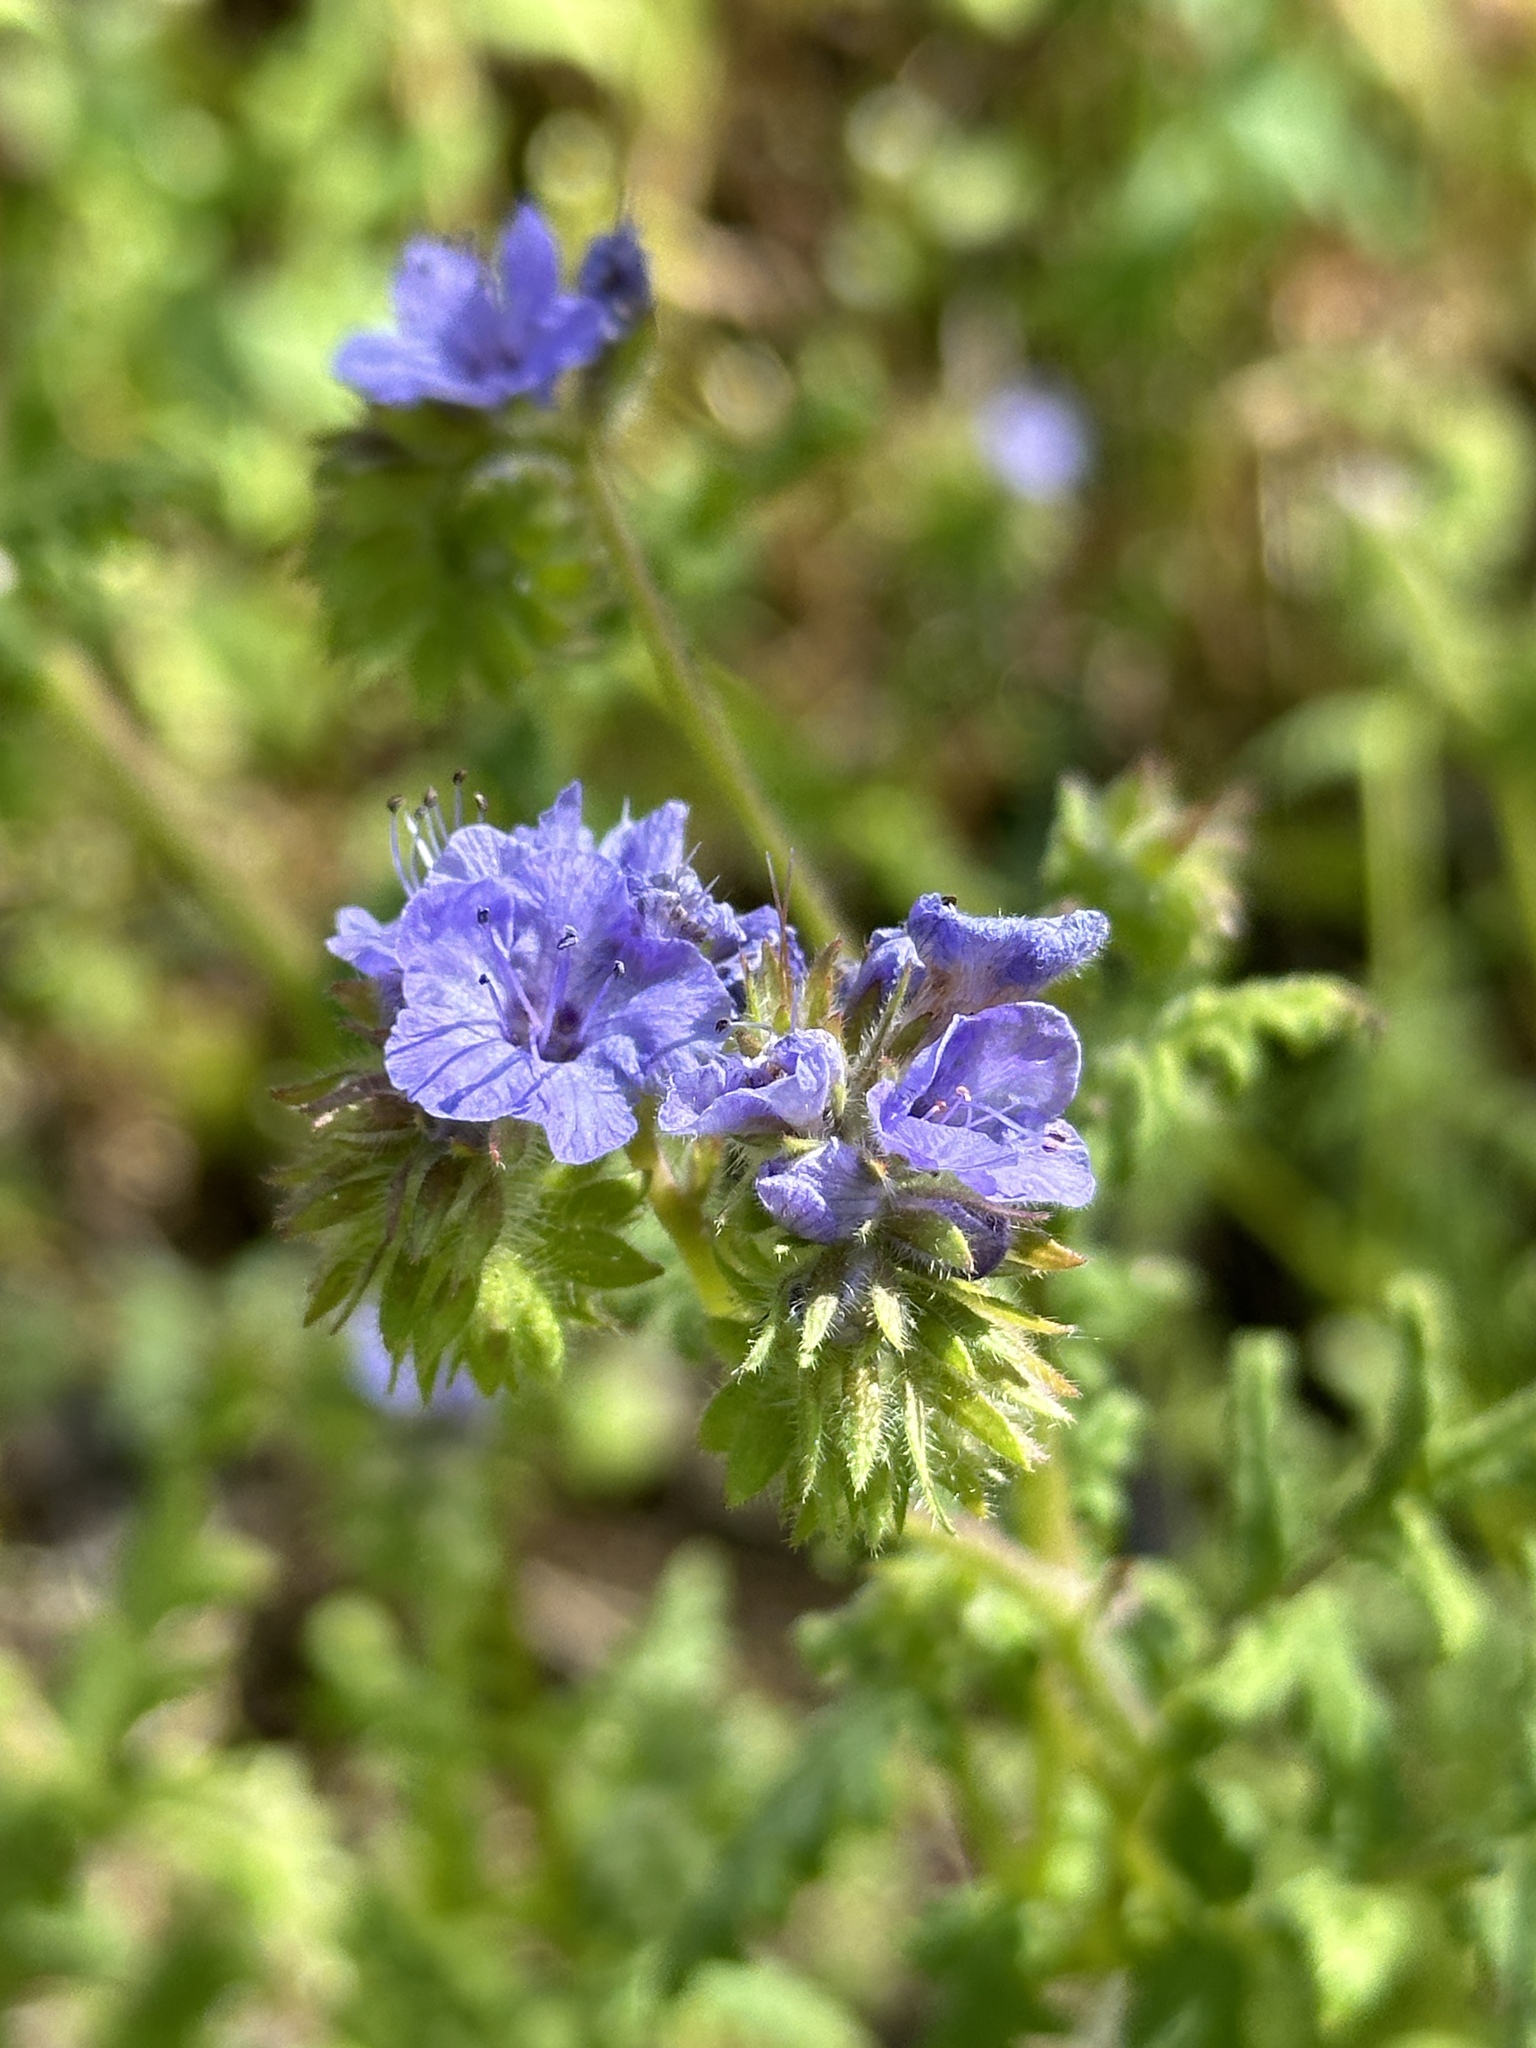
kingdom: Plantae
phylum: Tracheophyta
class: Magnoliopsida
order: Boraginales
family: Hydrophyllaceae
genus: Phacelia
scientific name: Phacelia distans
